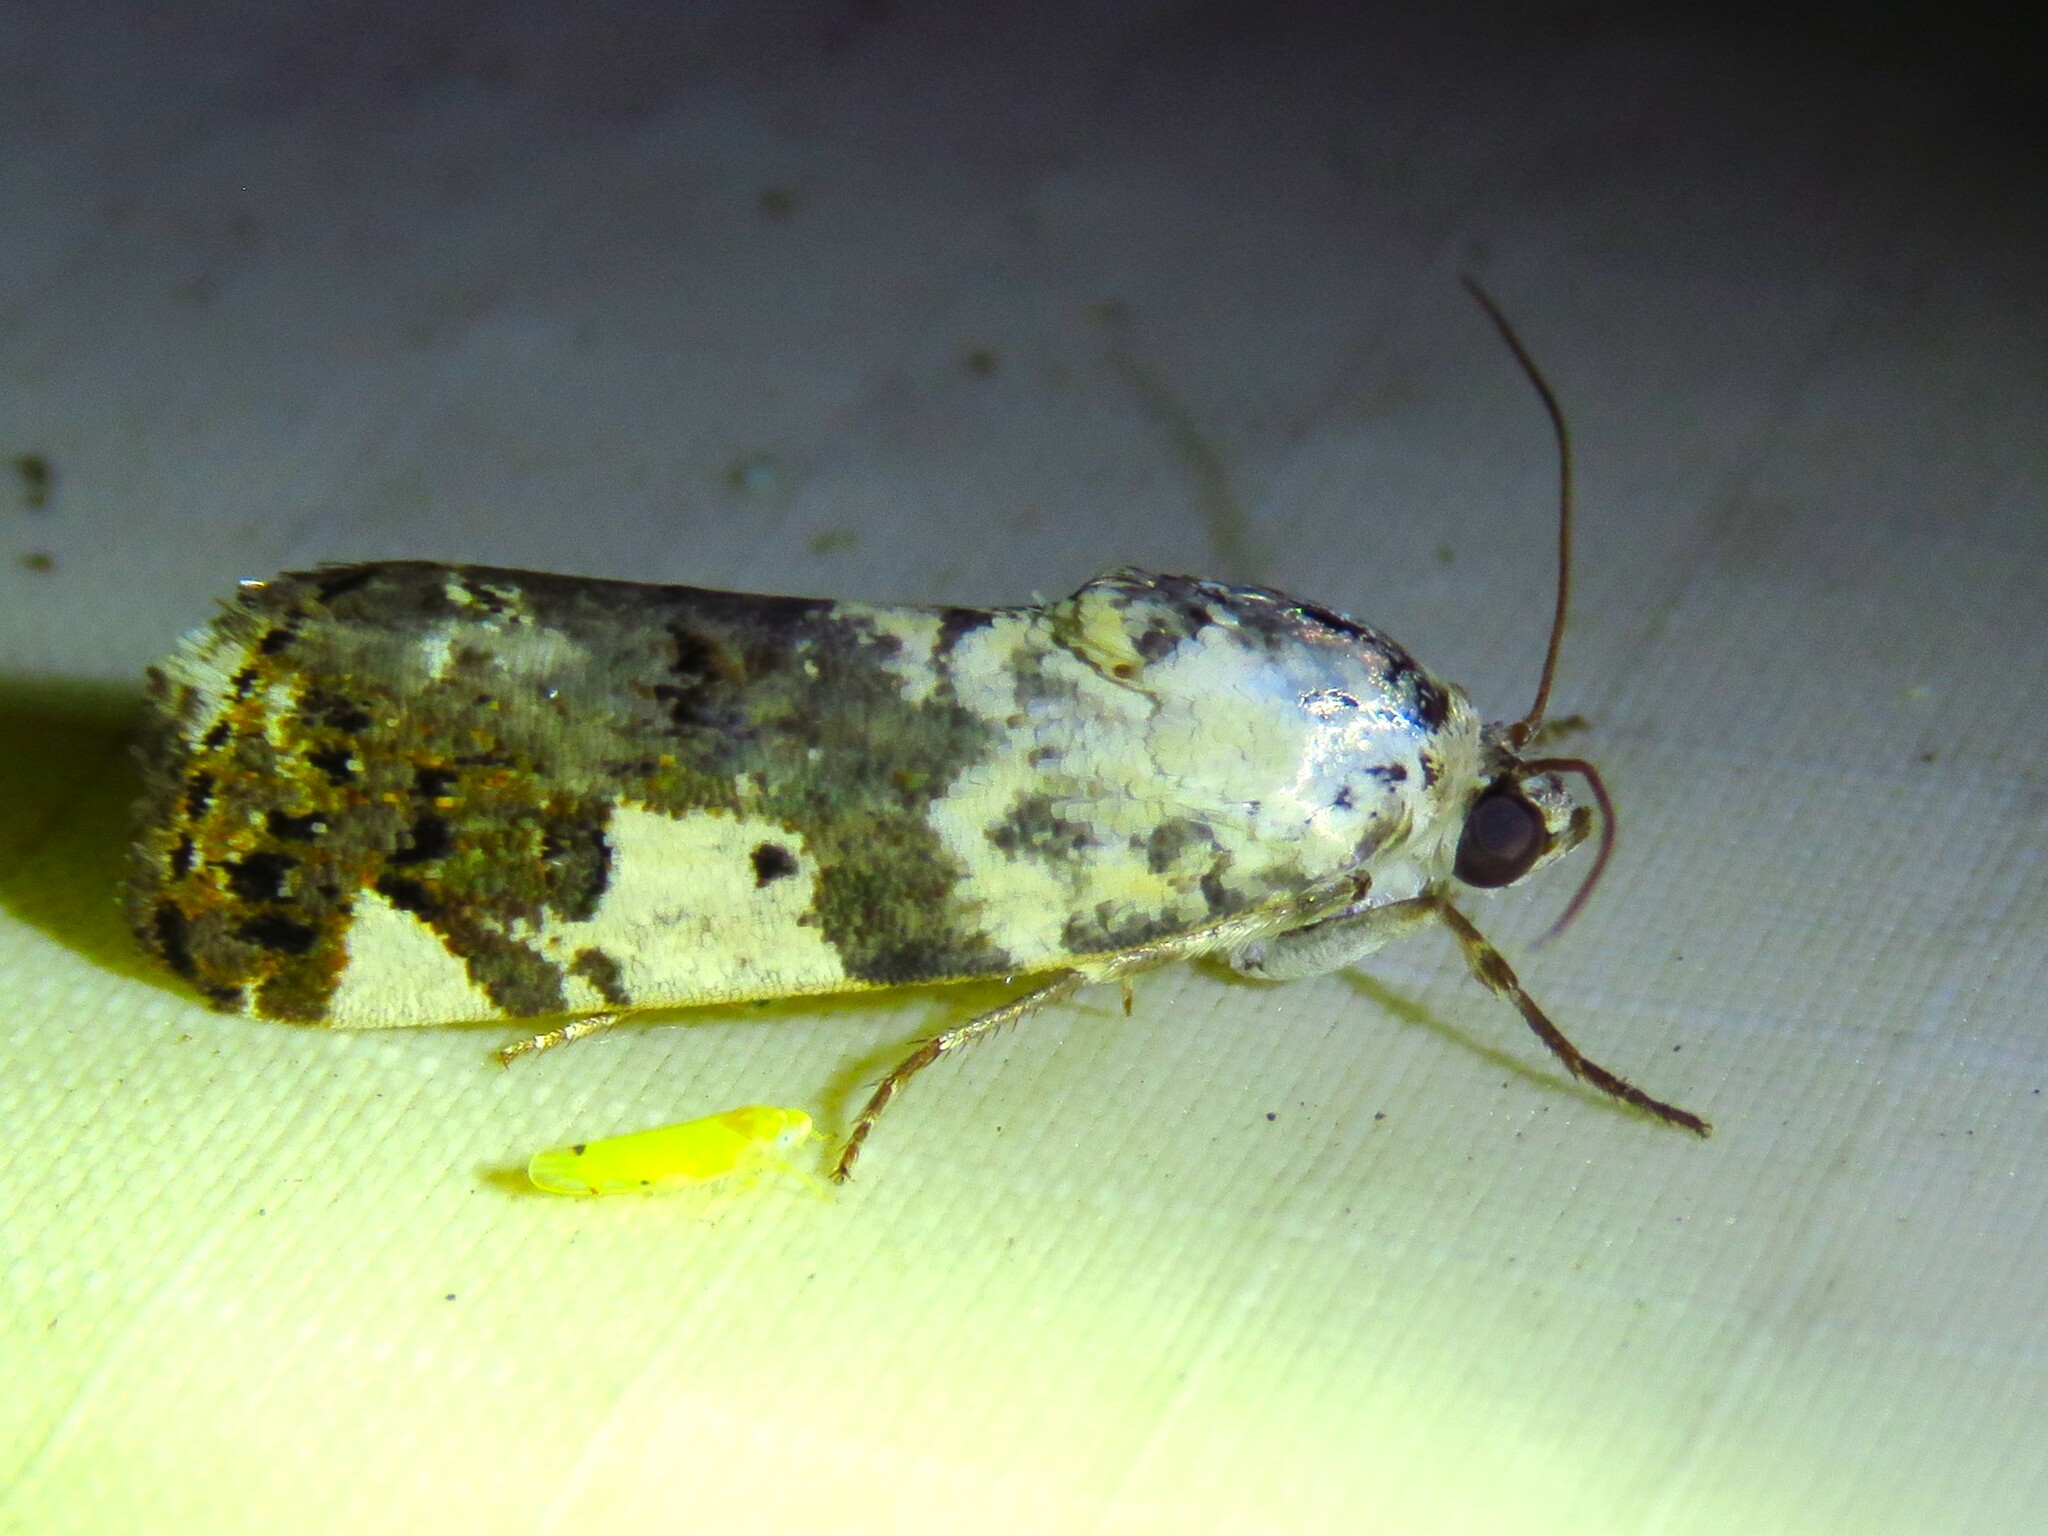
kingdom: Animalia
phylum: Arthropoda
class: Insecta
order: Lepidoptera
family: Noctuidae
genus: Acontia
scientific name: Acontia aprica
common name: Nun
